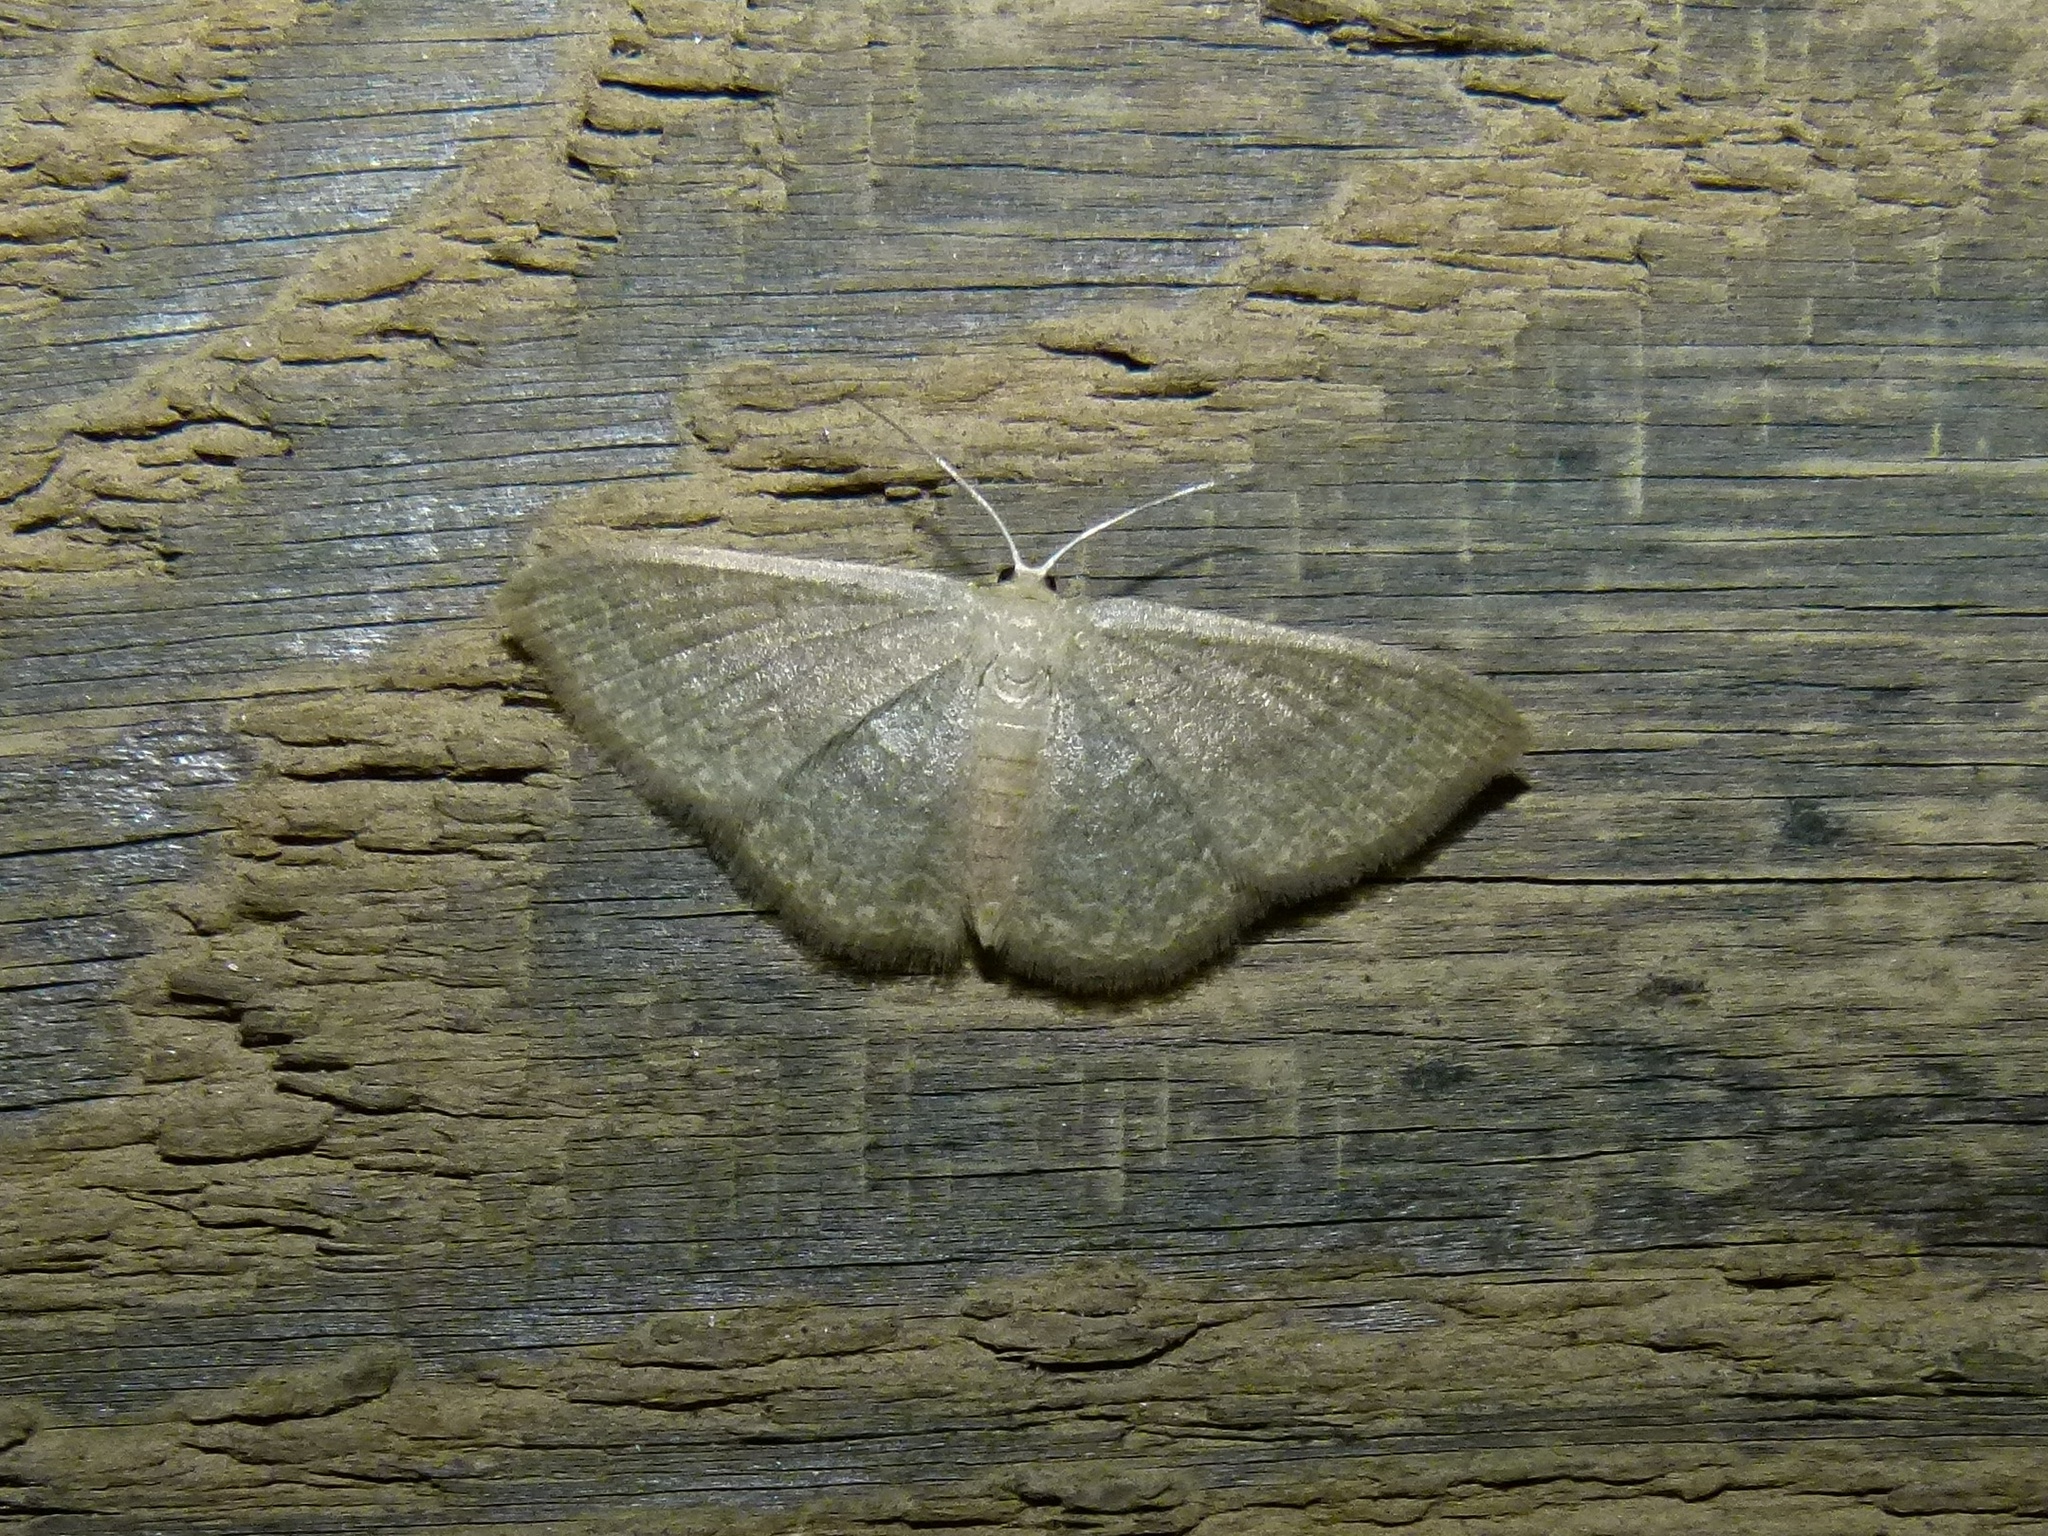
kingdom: Animalia
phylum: Arthropoda
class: Insecta
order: Lepidoptera
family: Geometridae
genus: Pleuroprucha
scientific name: Pleuroprucha insulsaria
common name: Common tan wave
